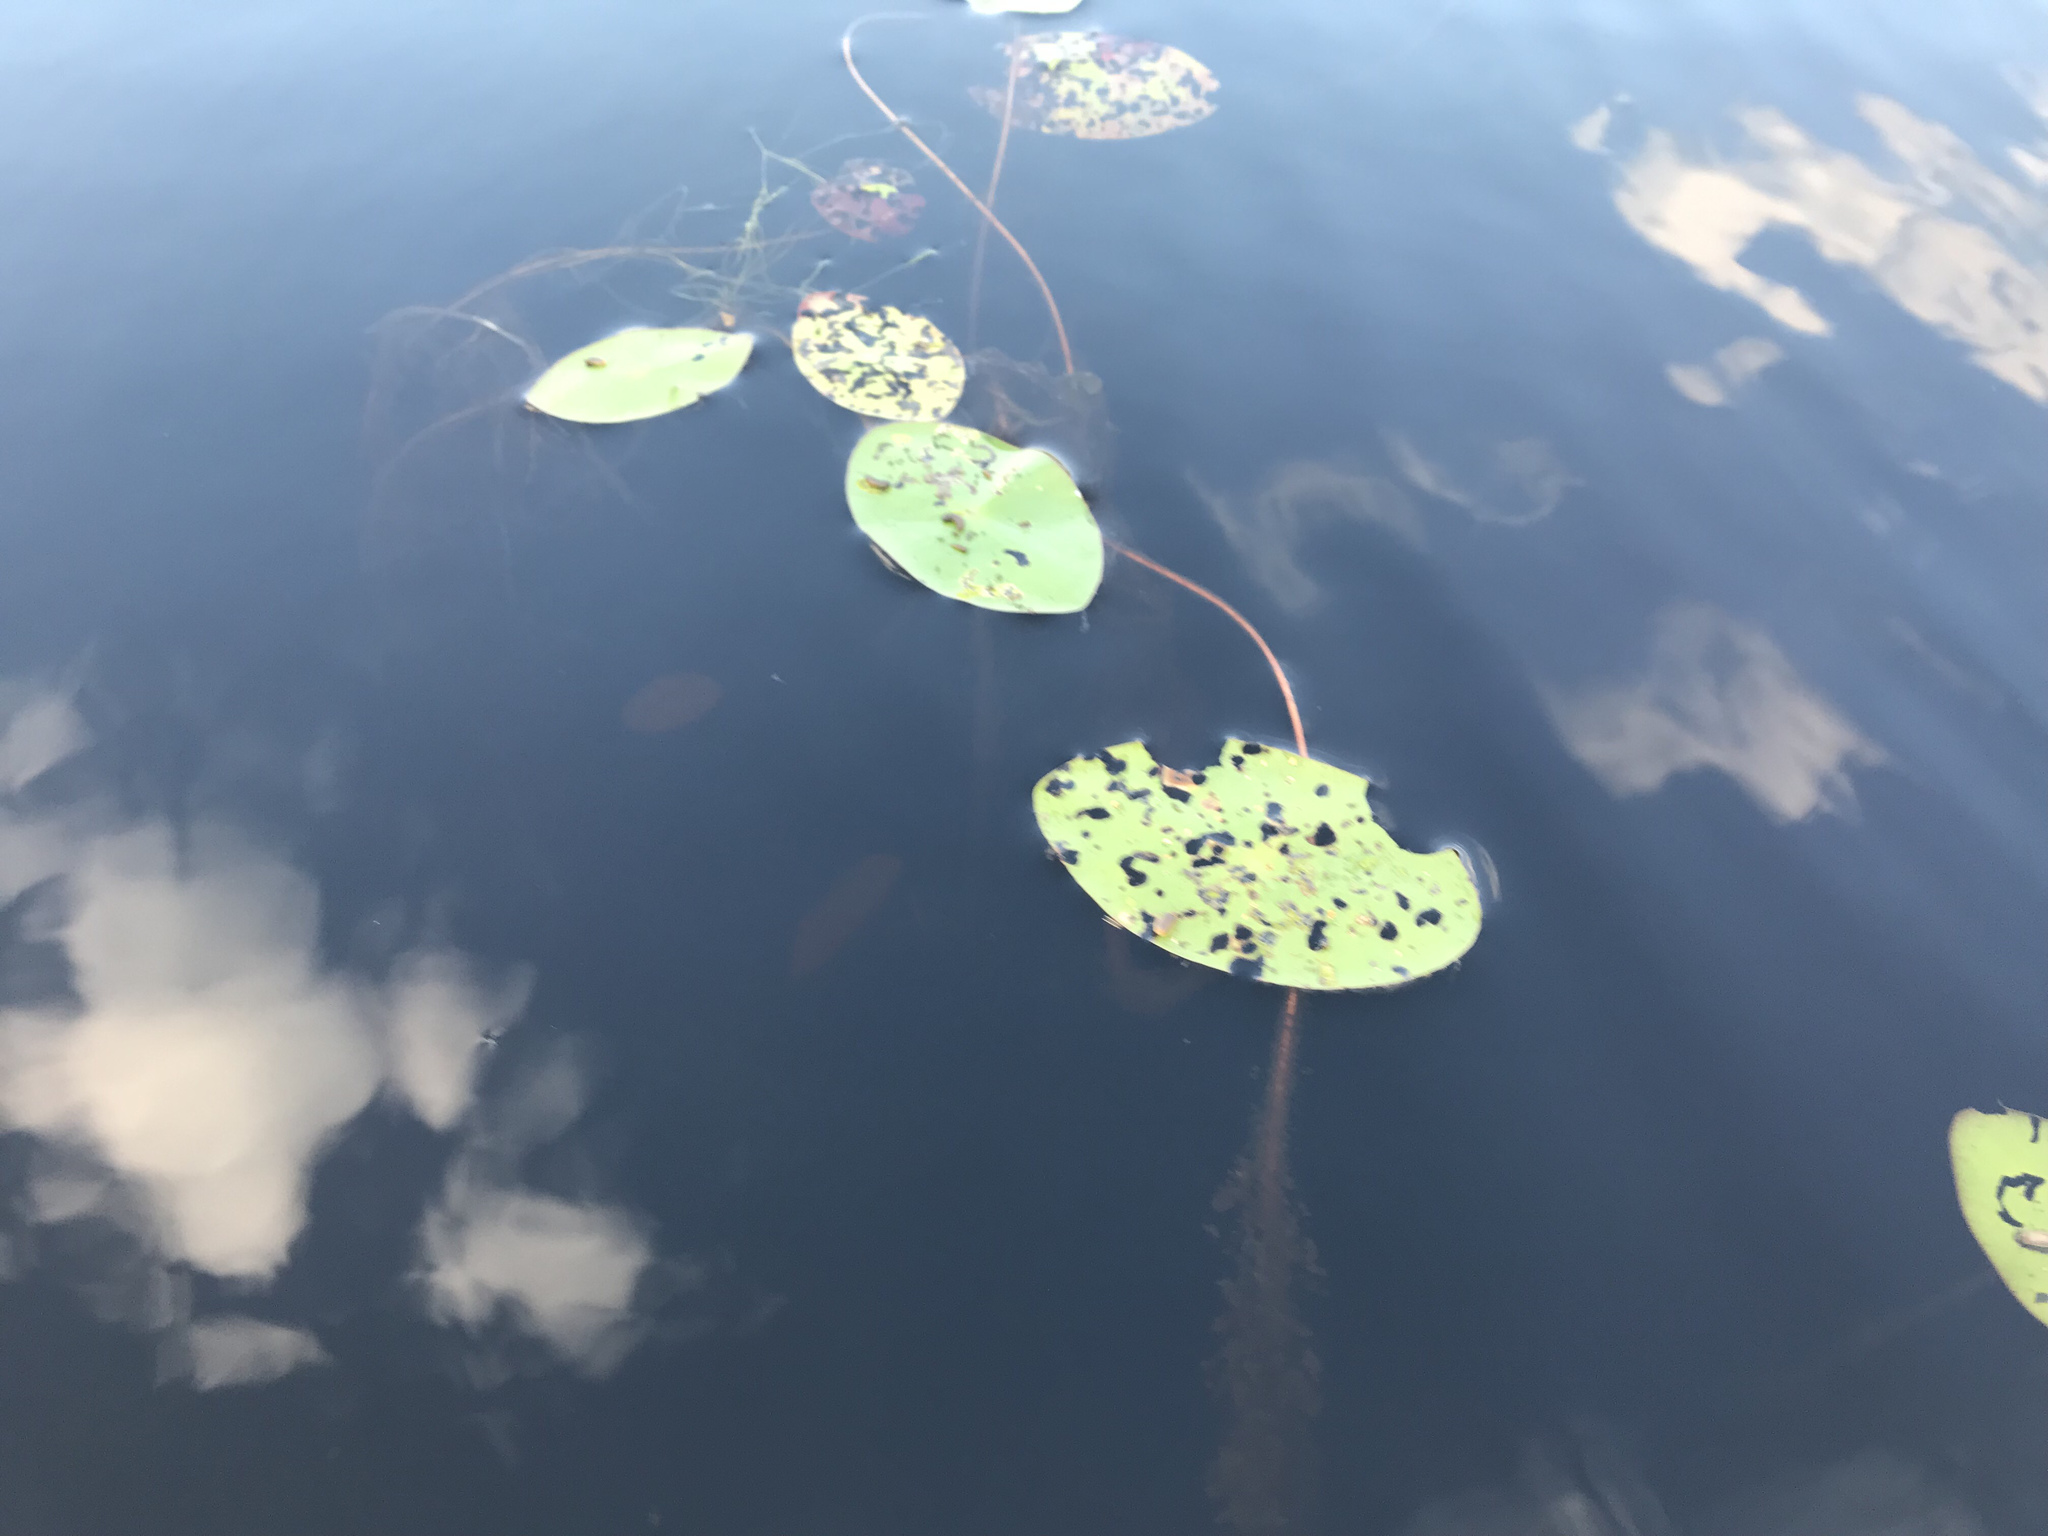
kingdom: Plantae
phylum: Tracheophyta
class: Magnoliopsida
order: Nymphaeales
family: Cabombaceae
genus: Brasenia
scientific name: Brasenia schreberi
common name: Water-shield
